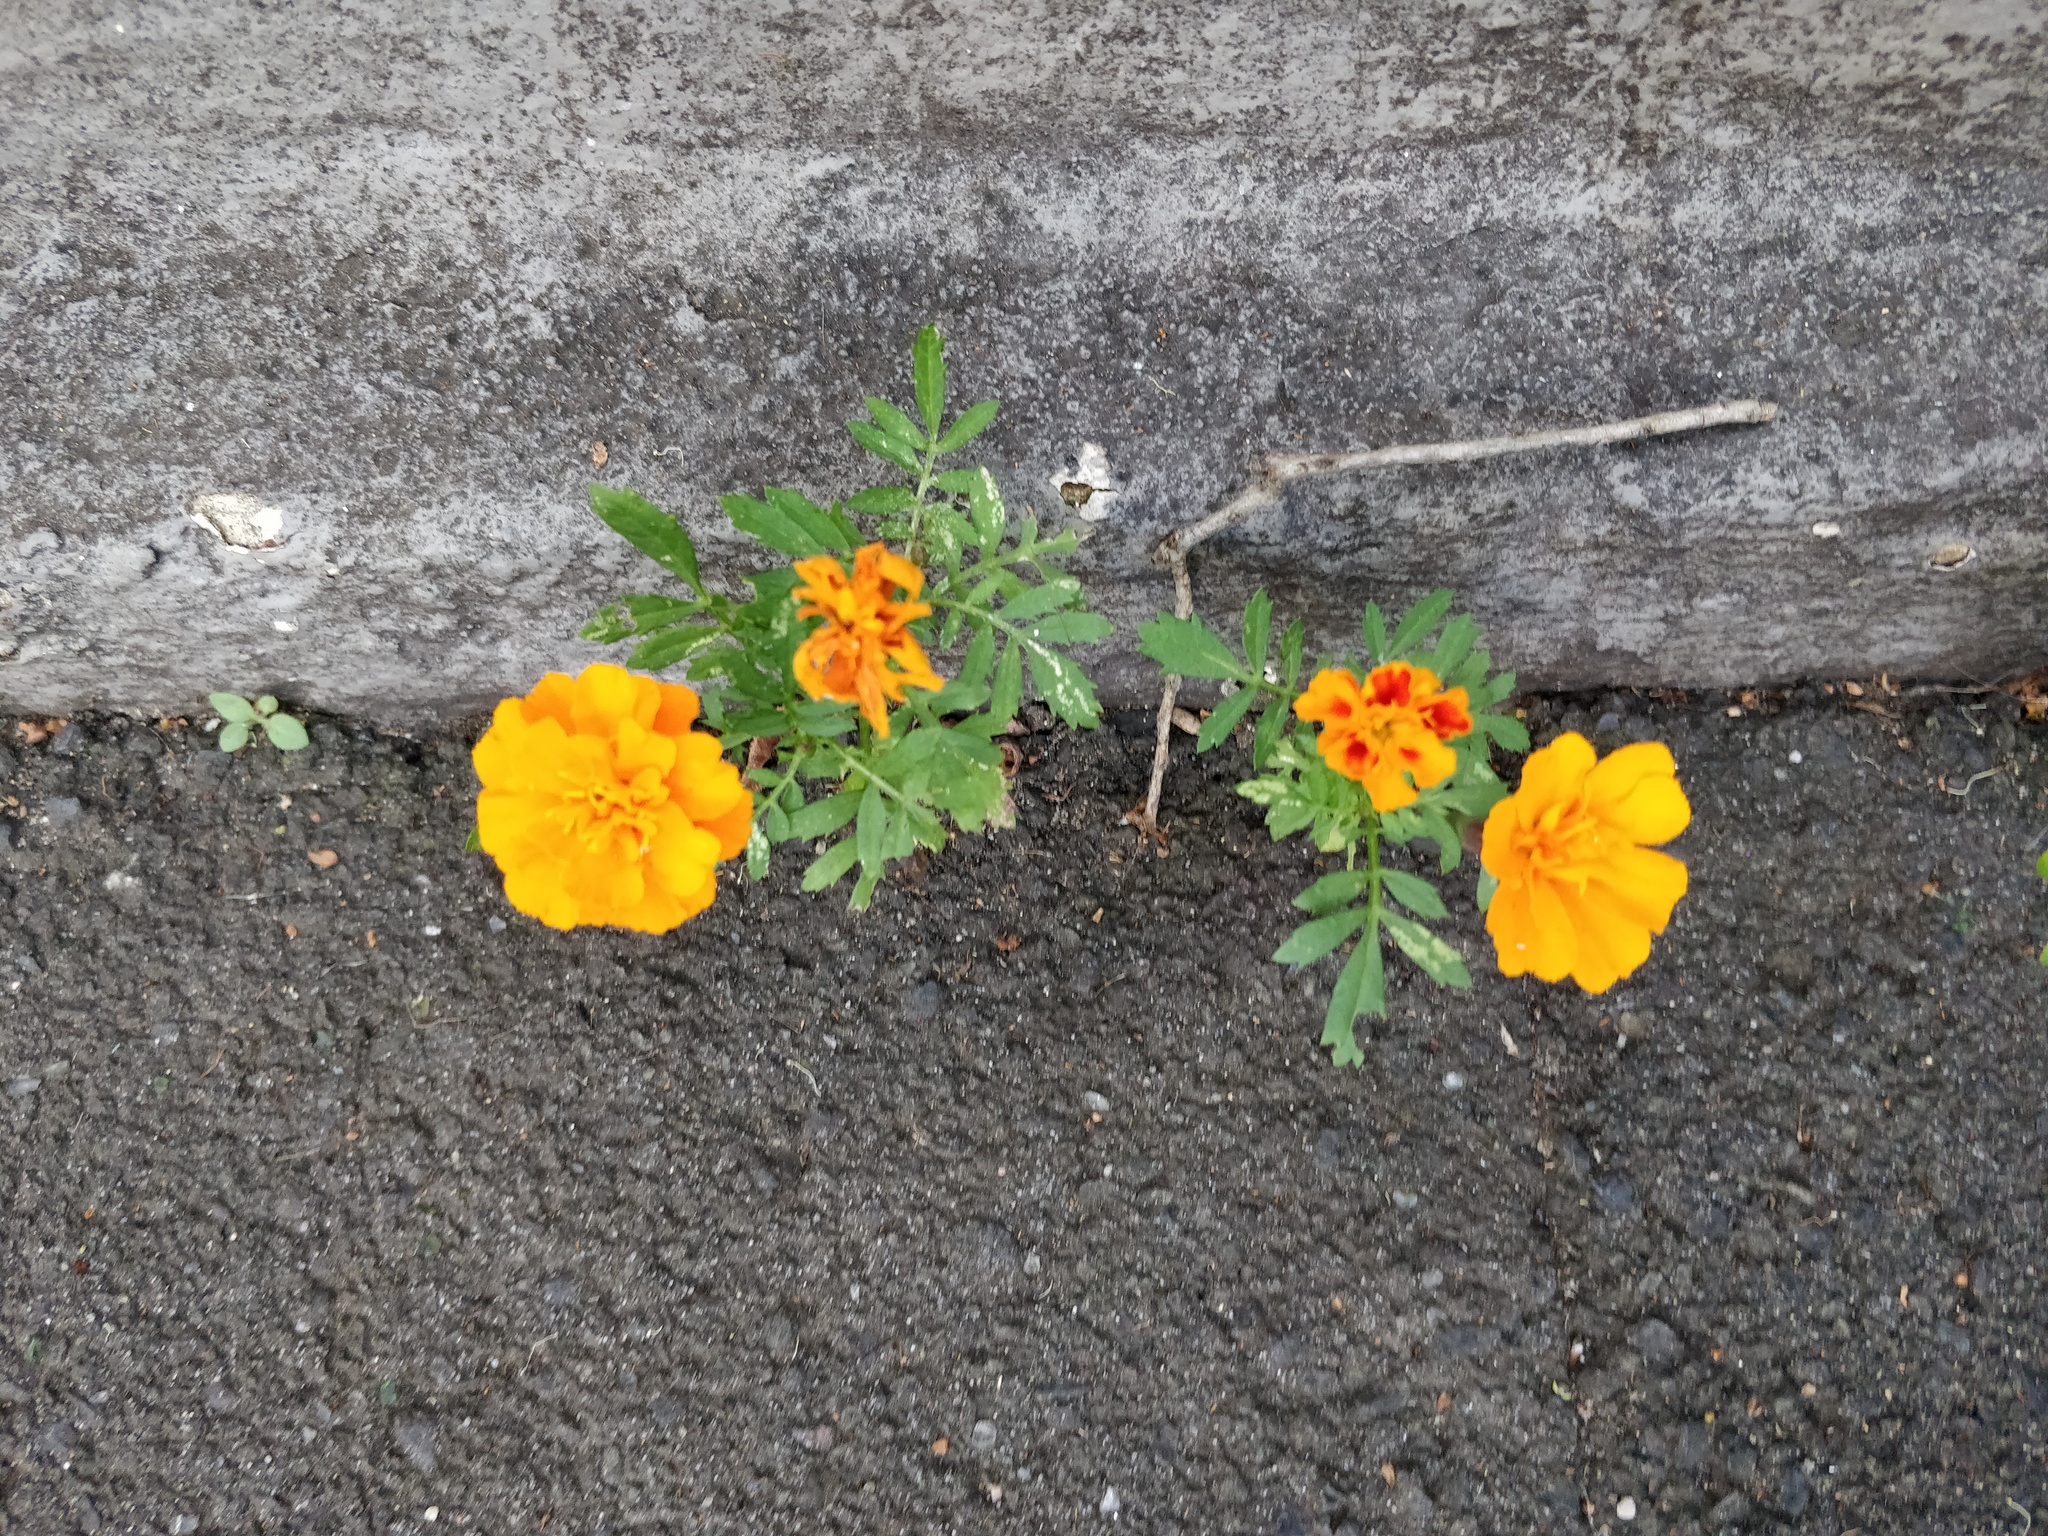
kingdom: Plantae
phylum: Tracheophyta
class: Magnoliopsida
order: Asterales
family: Asteraceae
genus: Tagetes
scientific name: Tagetes erecta
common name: African marigold
